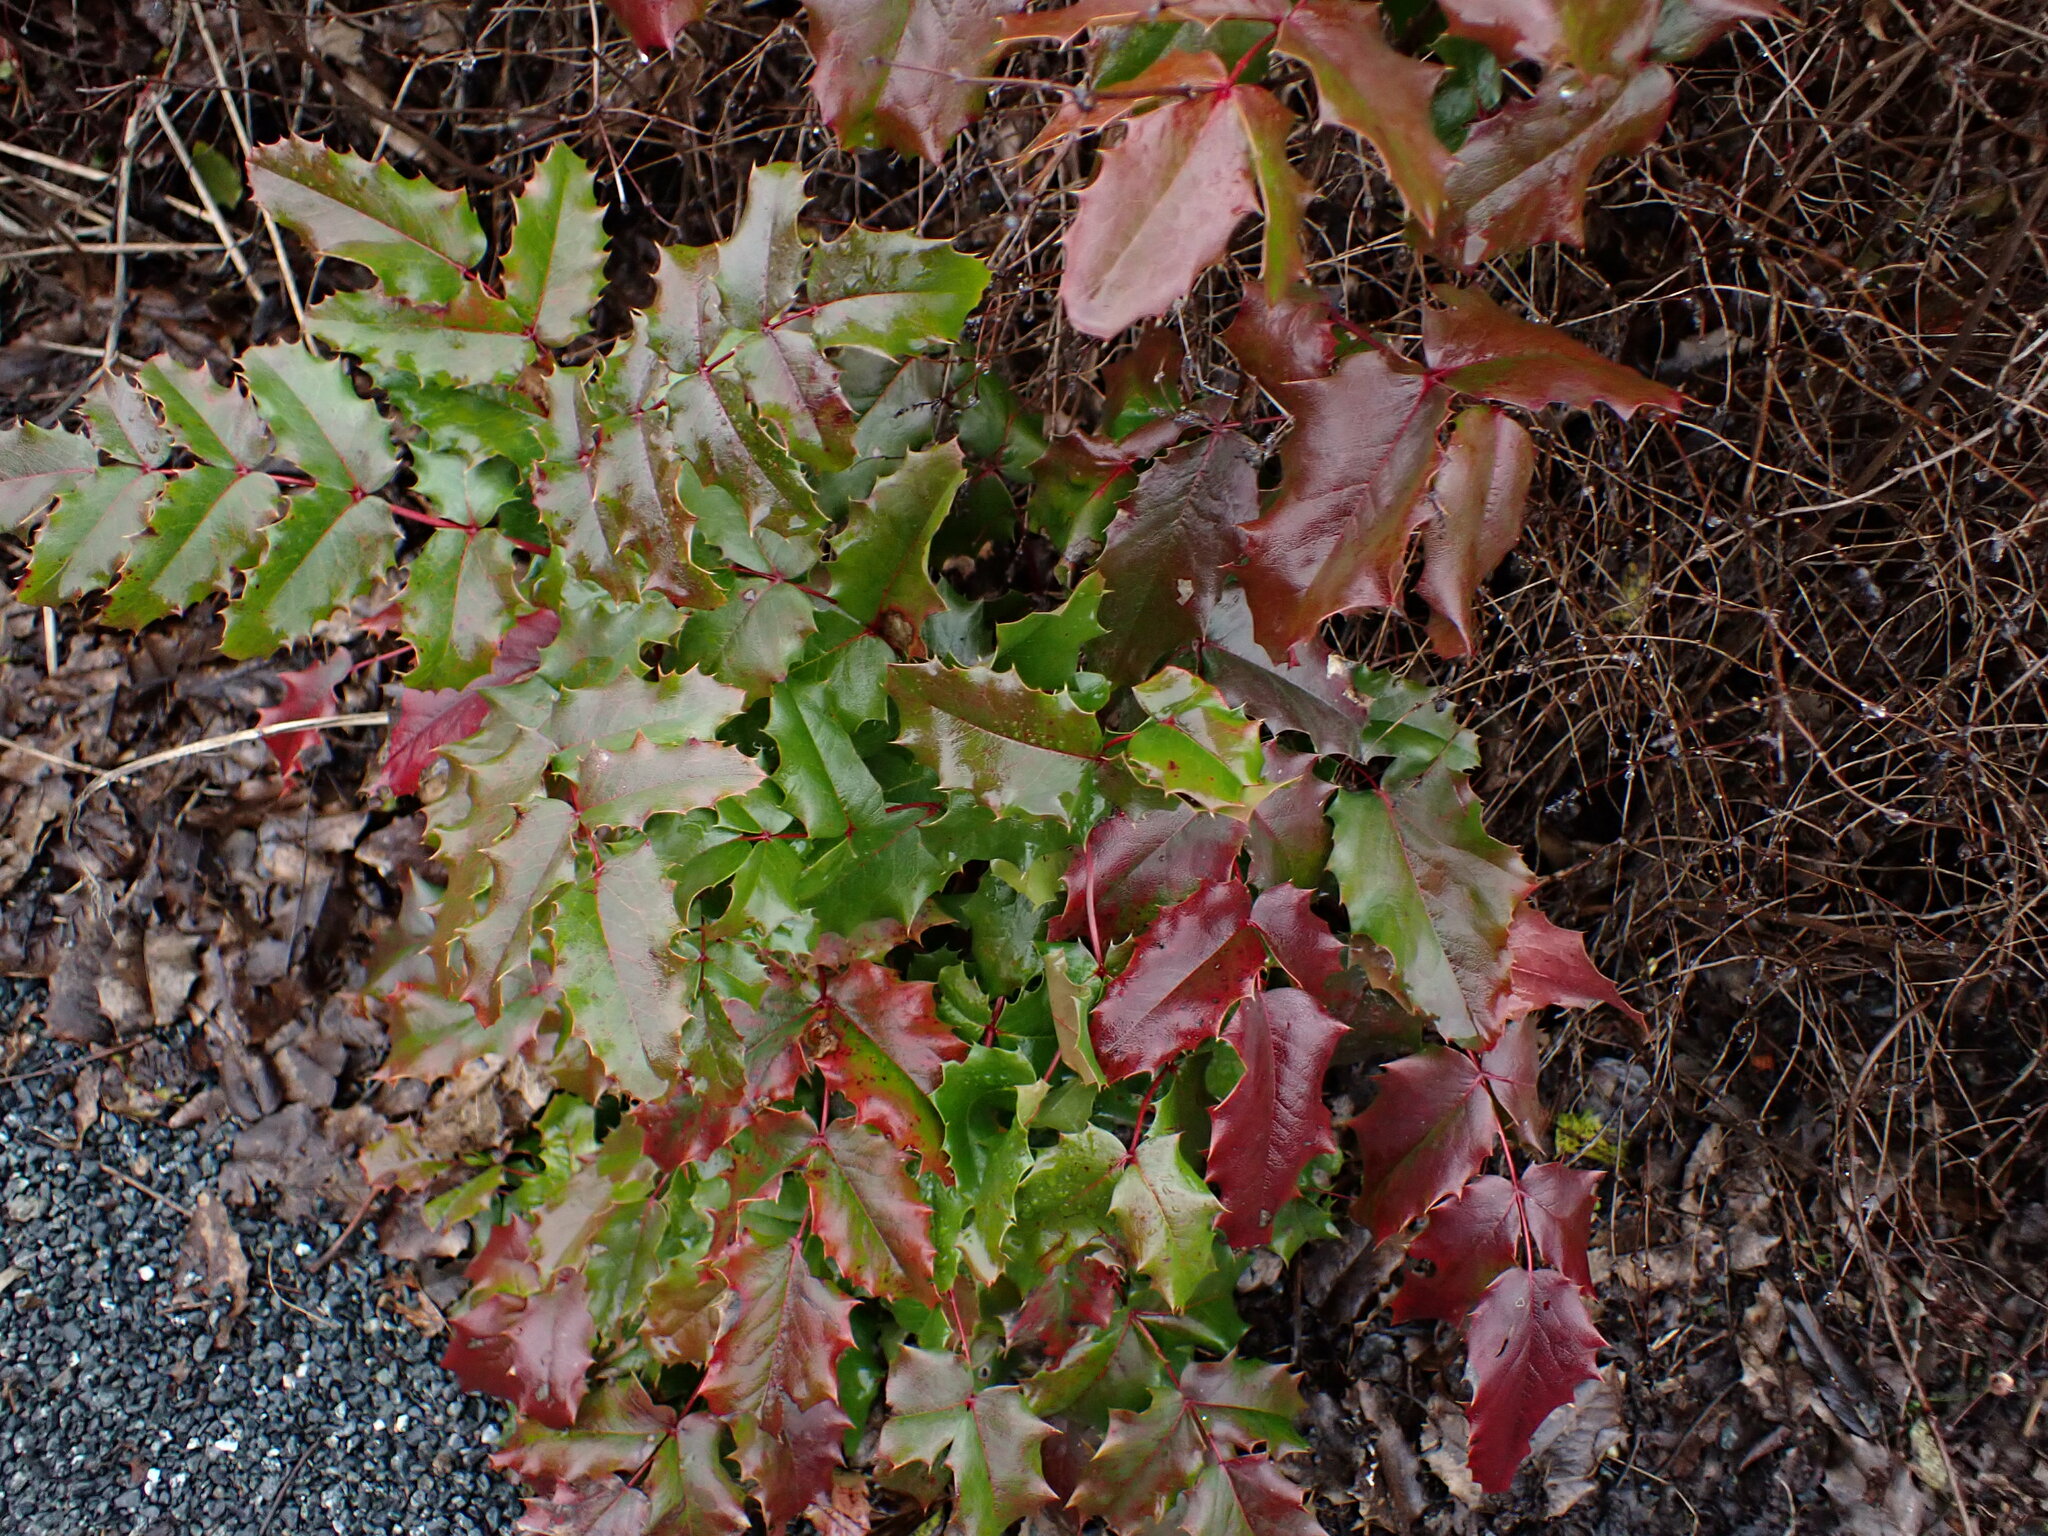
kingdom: Plantae
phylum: Tracheophyta
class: Magnoliopsida
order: Ranunculales
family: Berberidaceae
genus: Mahonia
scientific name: Mahonia aquifolium
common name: Oregon-grape
